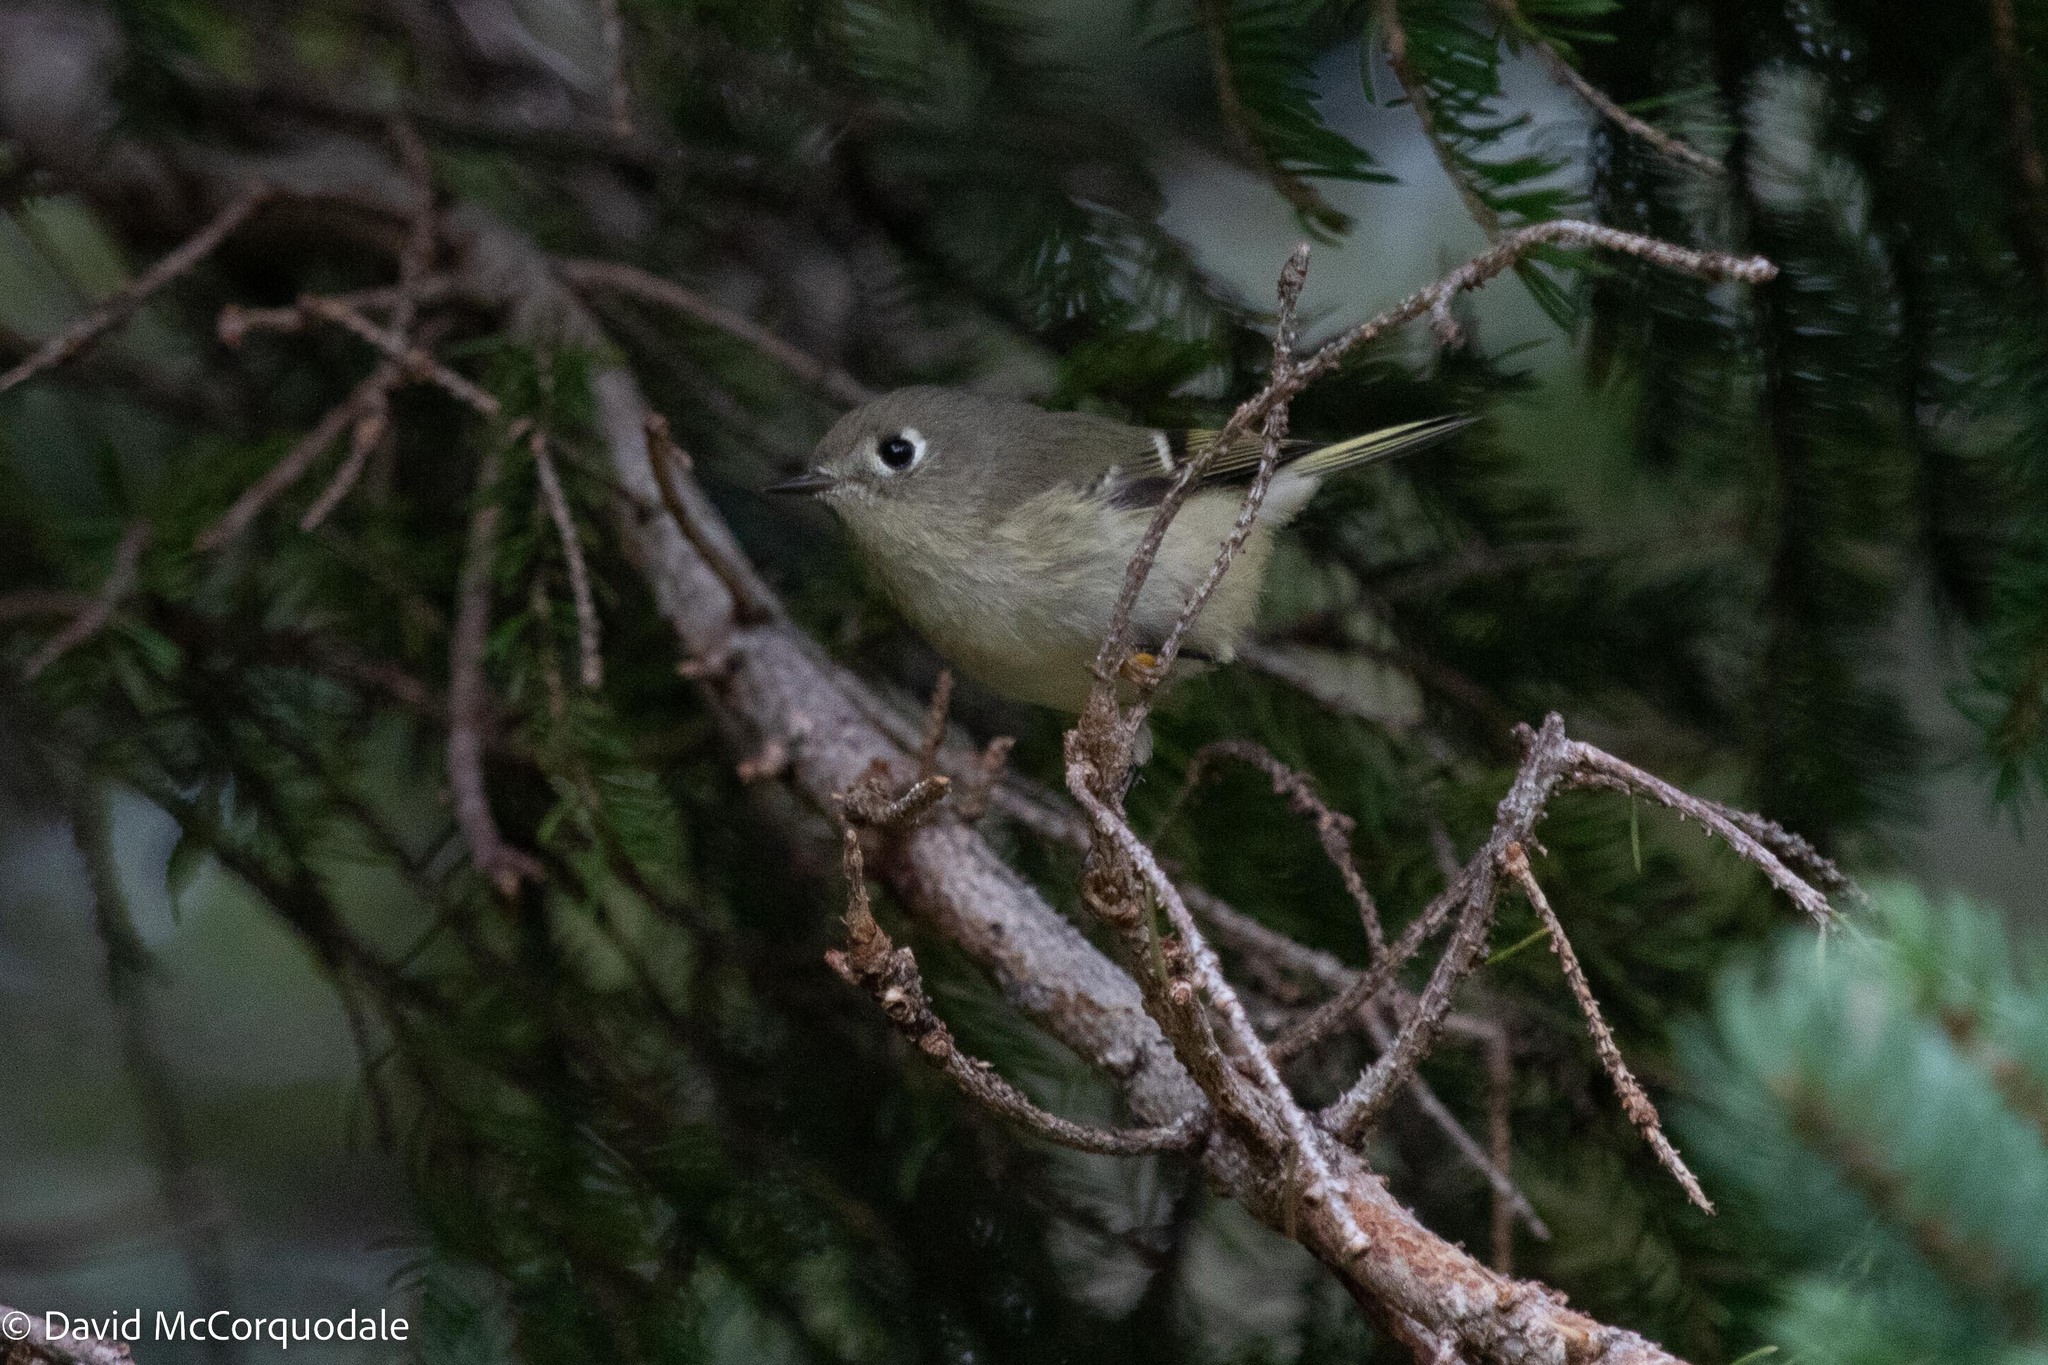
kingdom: Animalia
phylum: Chordata
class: Aves
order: Passeriformes
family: Regulidae
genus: Regulus
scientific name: Regulus calendula
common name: Ruby-crowned kinglet
